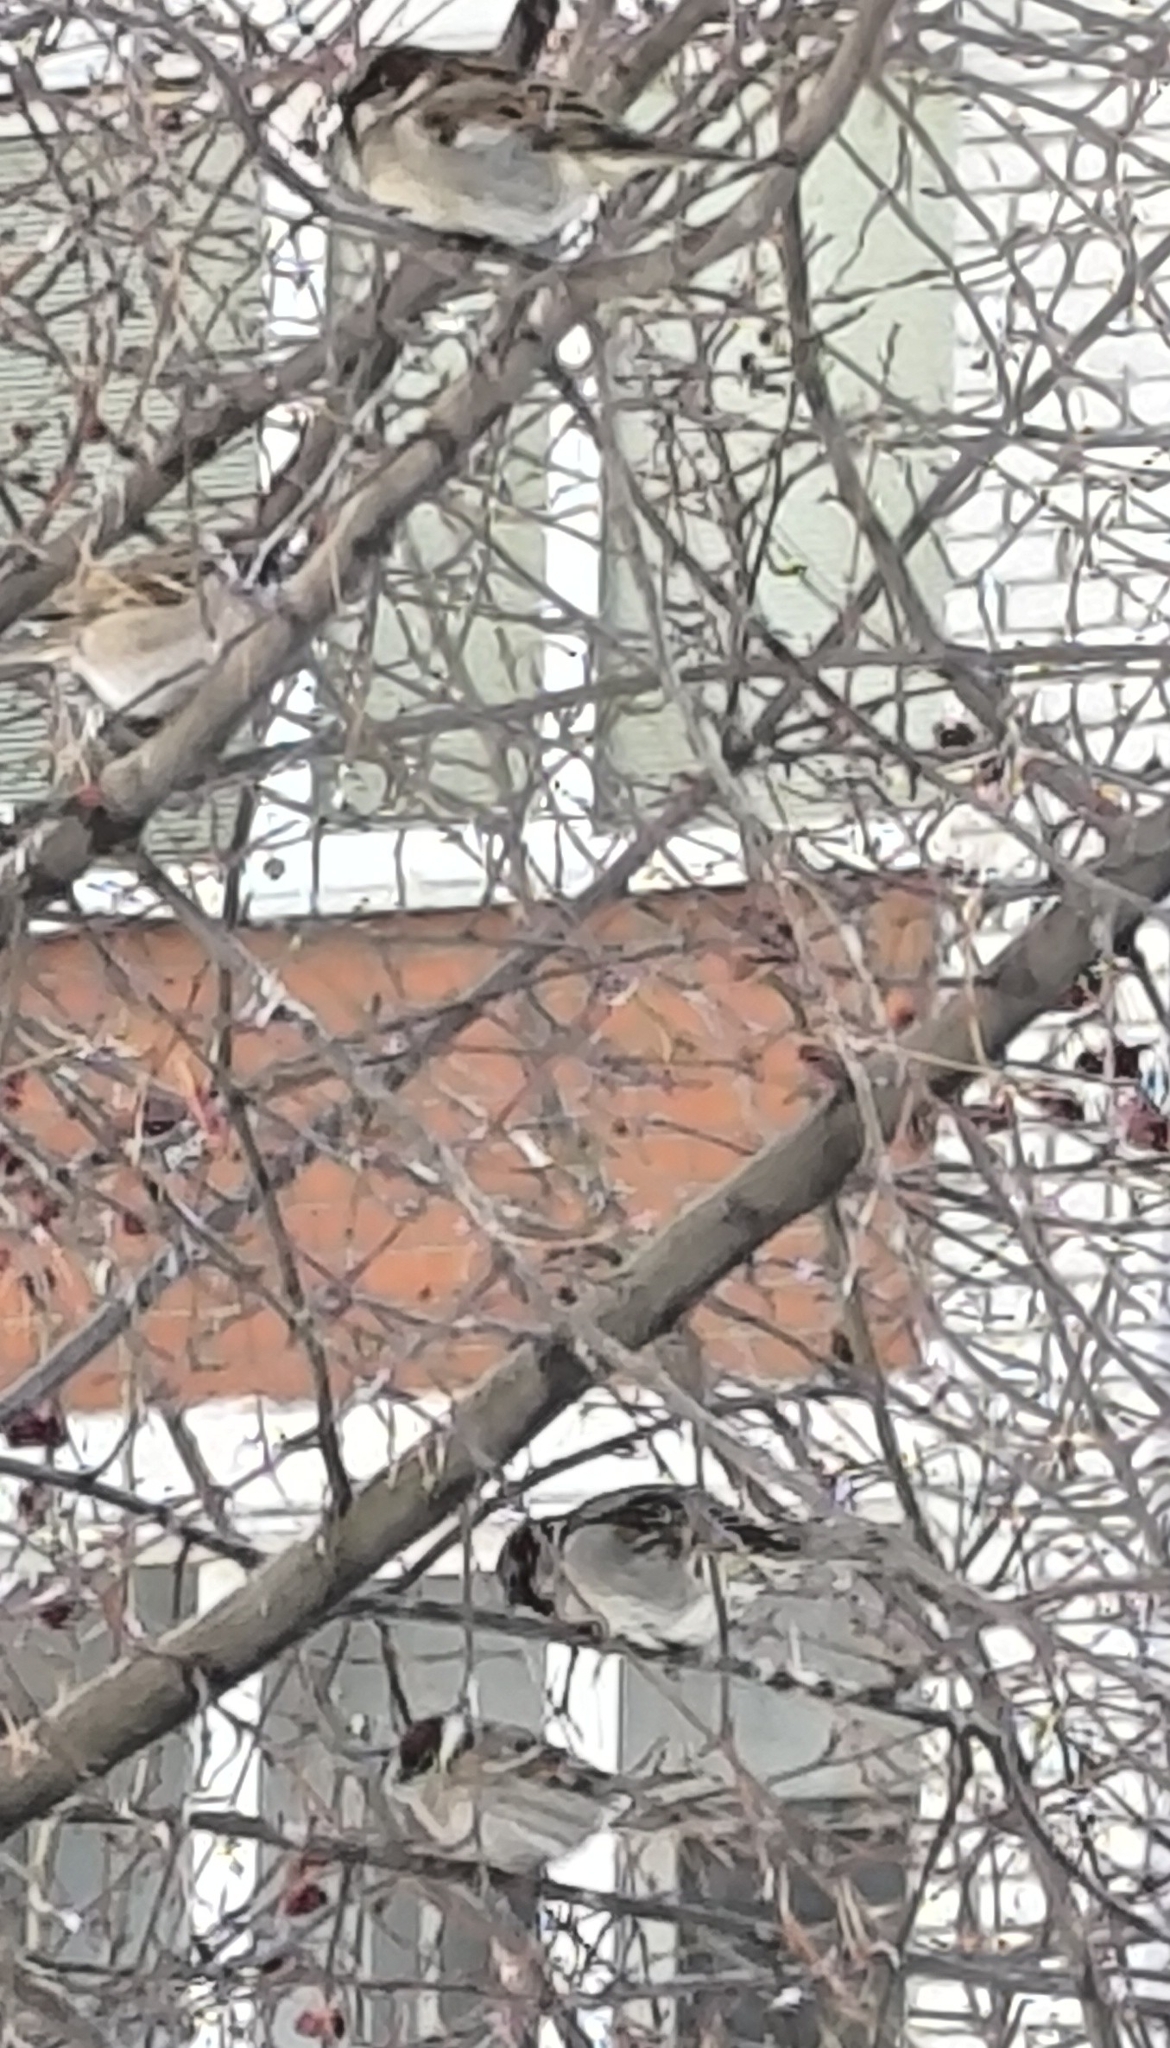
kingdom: Animalia
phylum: Chordata
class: Aves
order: Passeriformes
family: Passeridae
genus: Passer
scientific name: Passer montanus
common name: Eurasian tree sparrow
